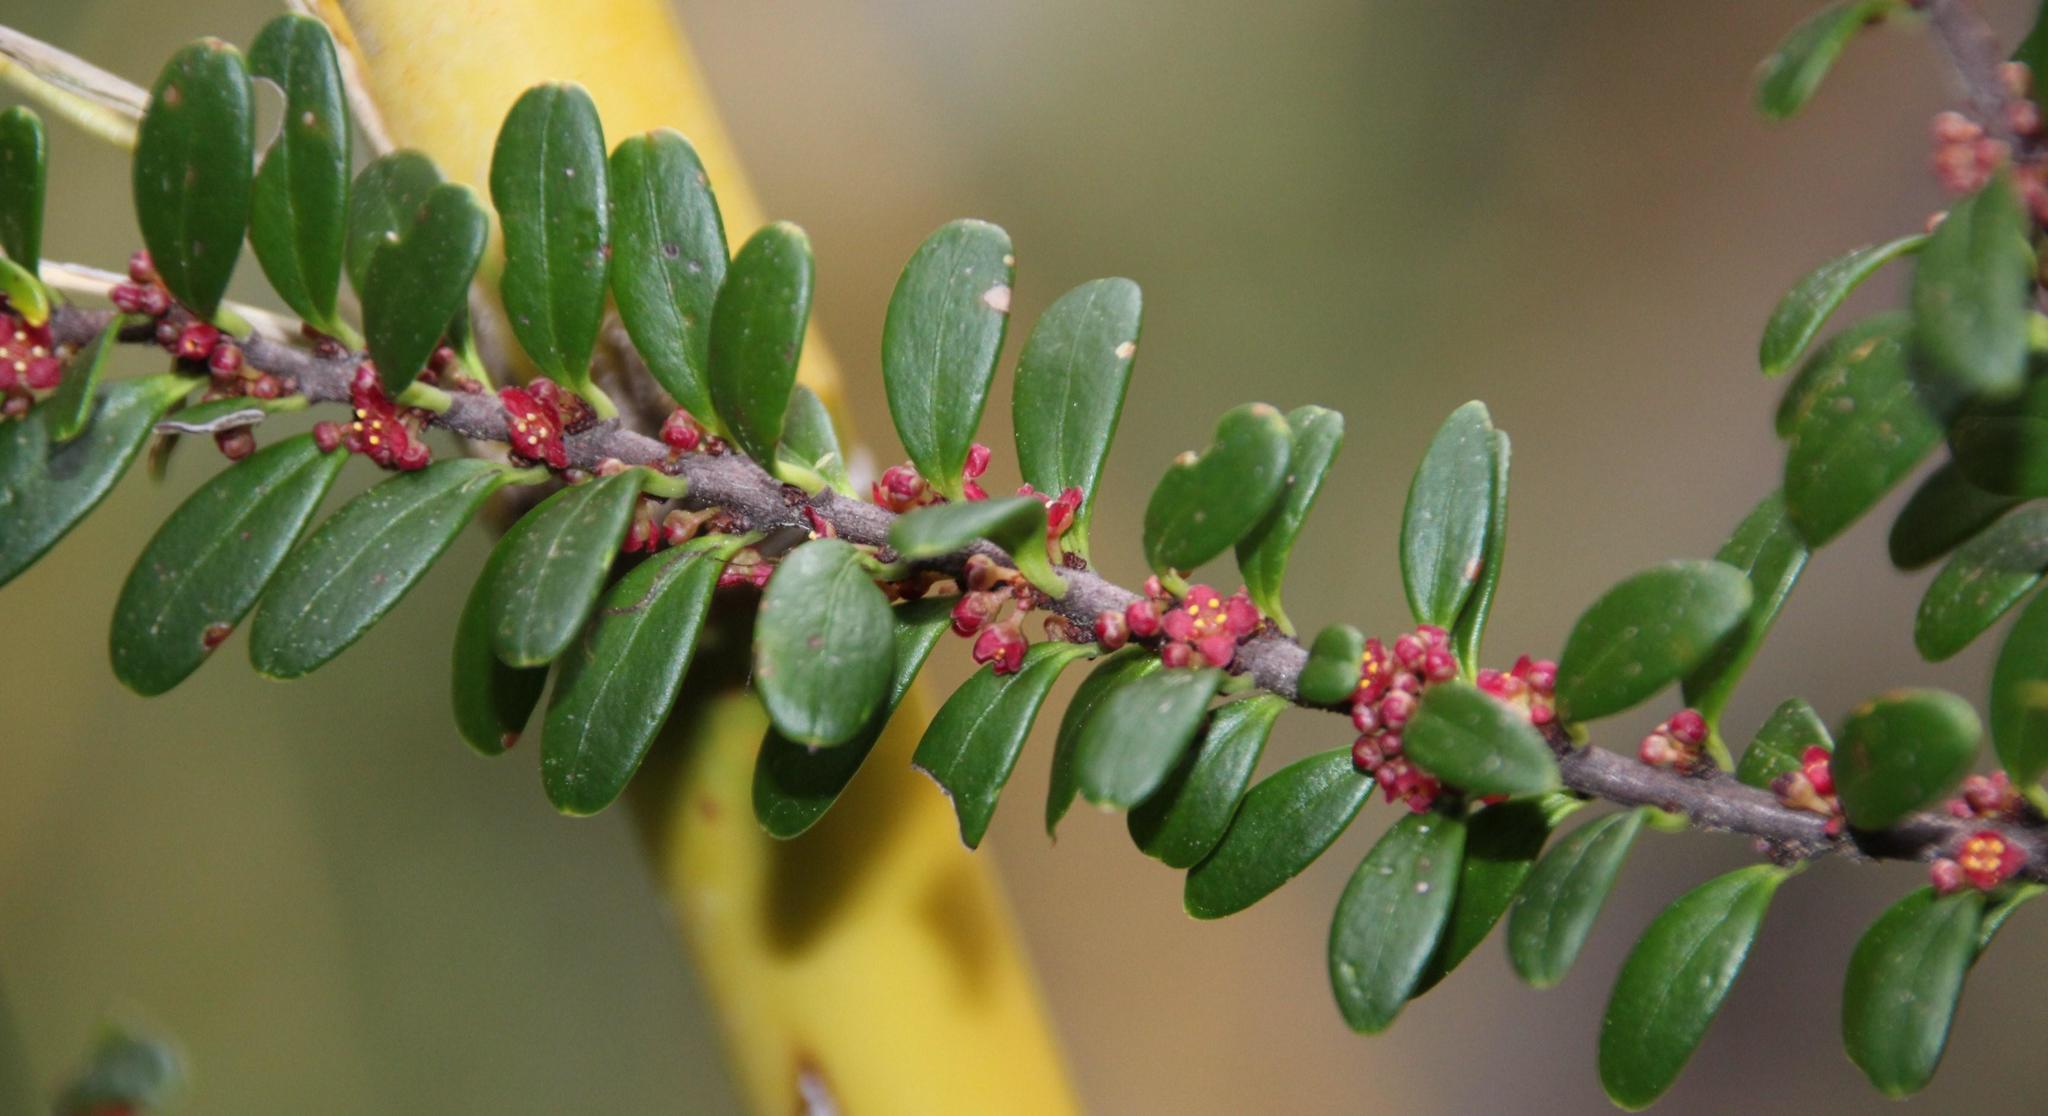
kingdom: Plantae
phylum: Tracheophyta
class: Magnoliopsida
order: Celastrales
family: Celastraceae
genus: Maytenus
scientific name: Maytenus disticha
